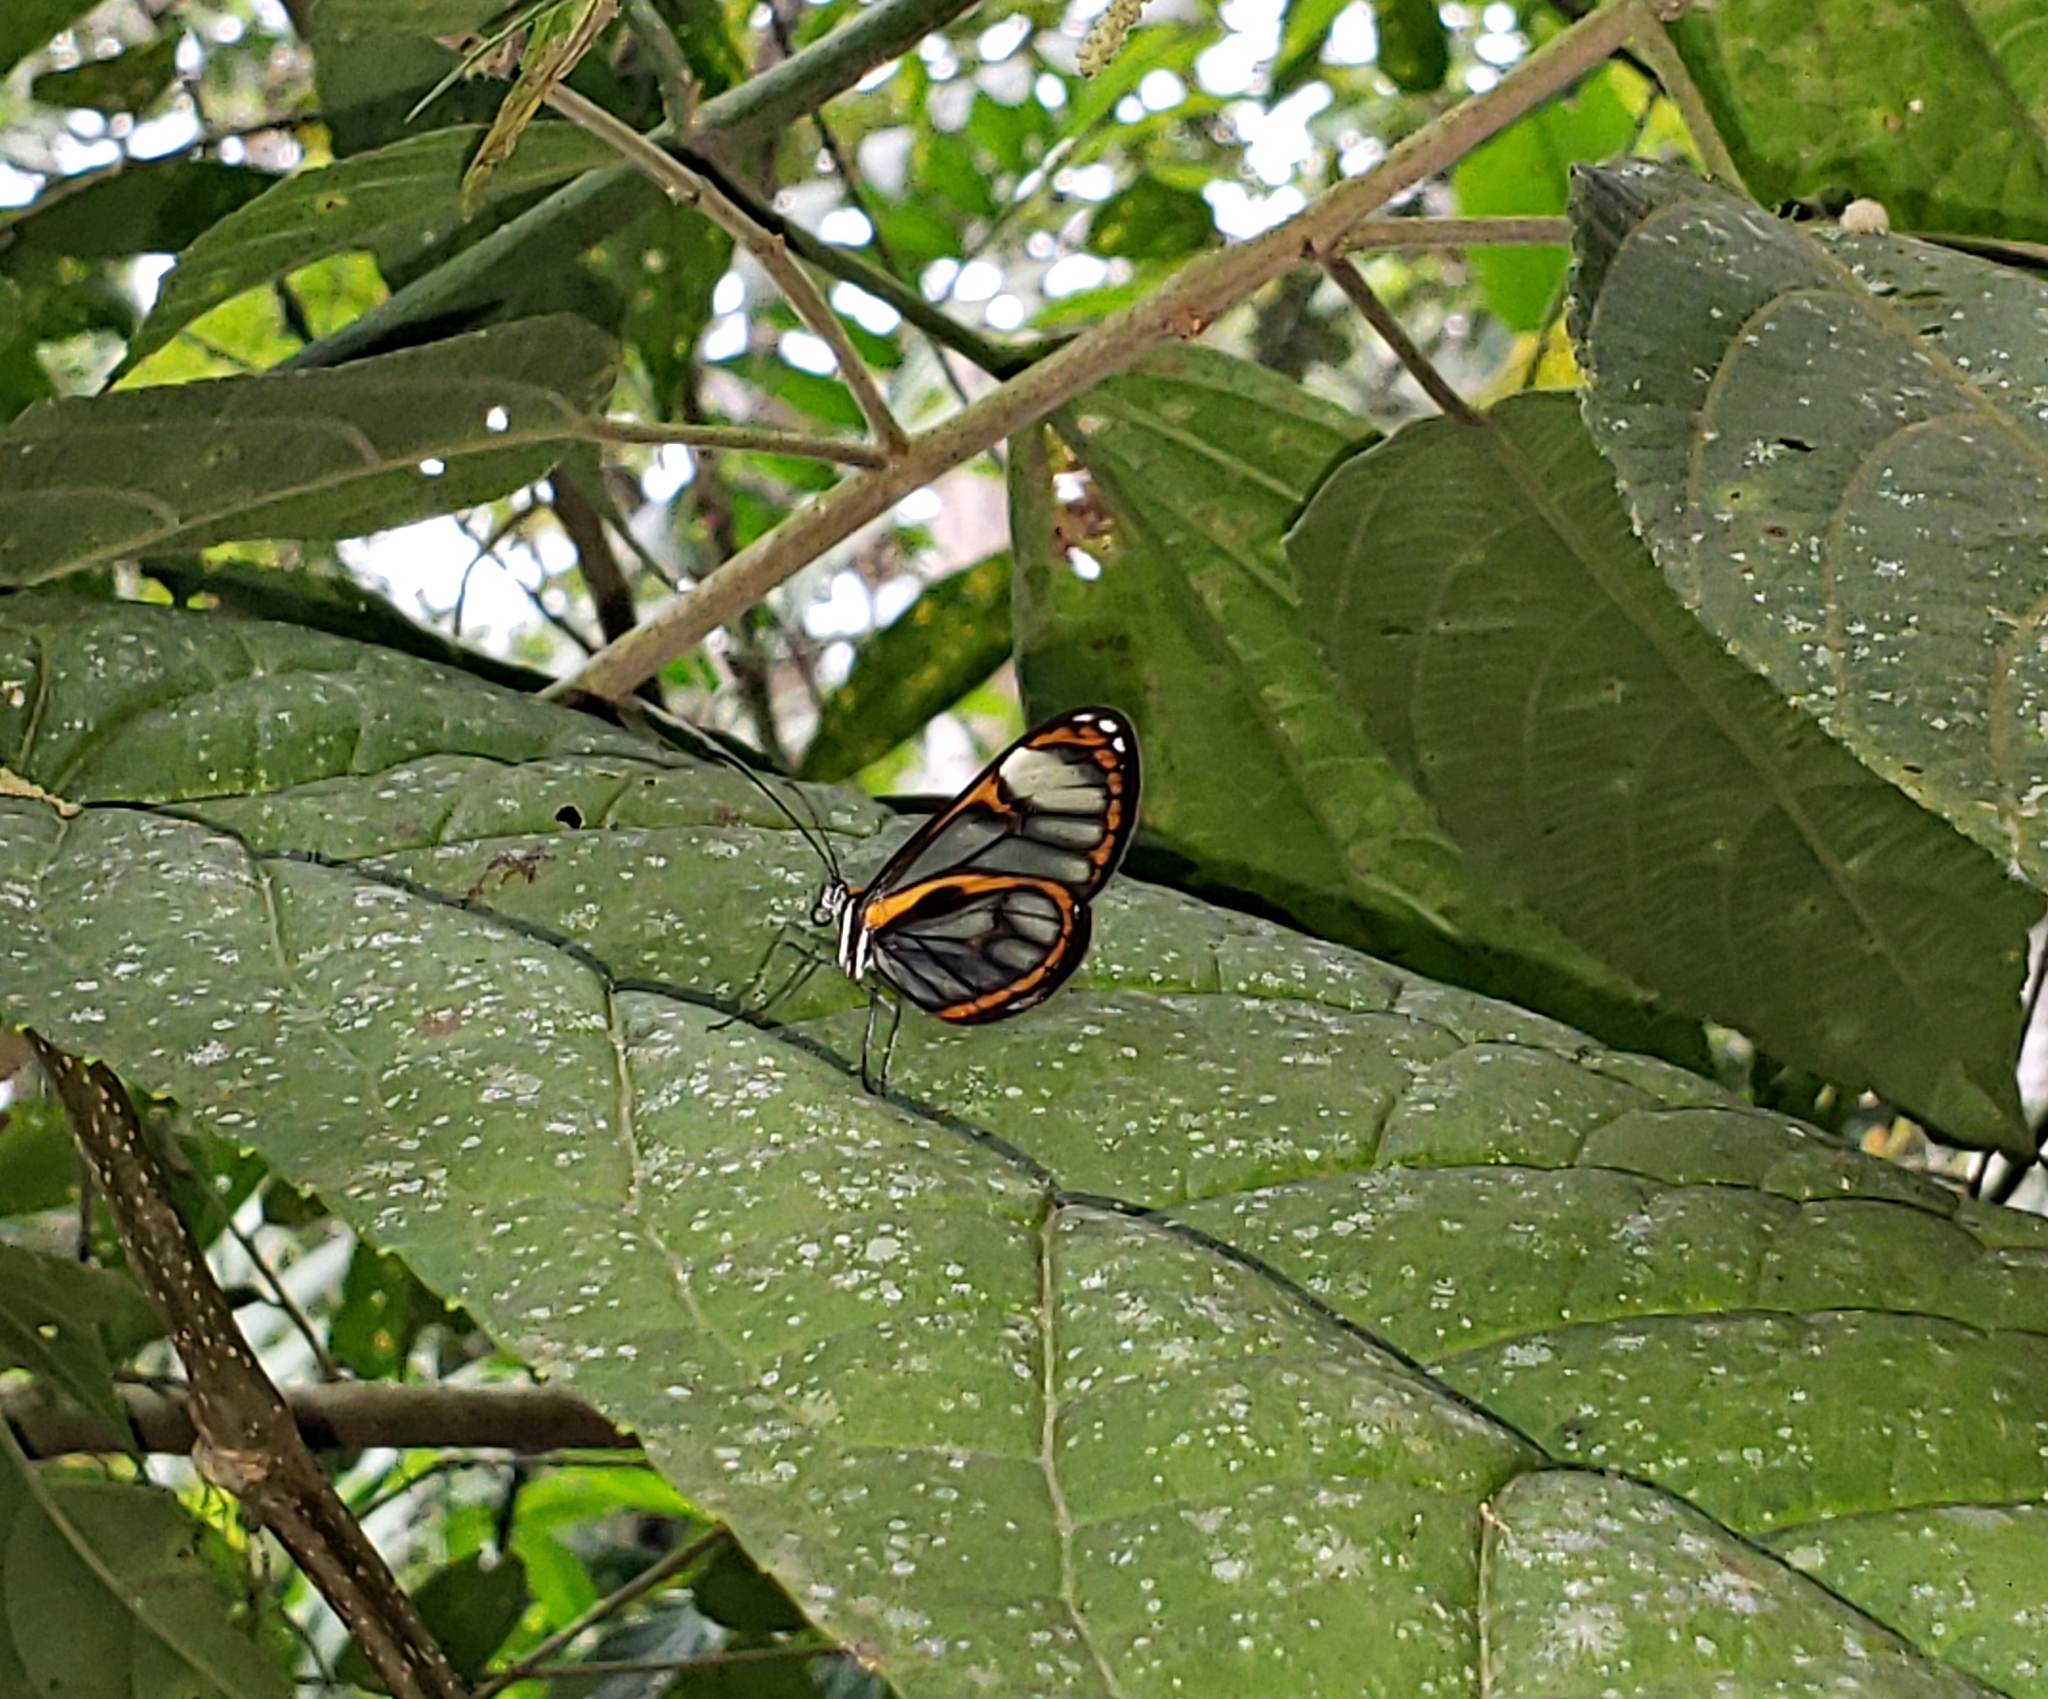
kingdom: Animalia
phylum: Arthropoda
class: Insecta
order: Lepidoptera
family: Nymphalidae
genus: Ithomia
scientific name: Ithomia terra
